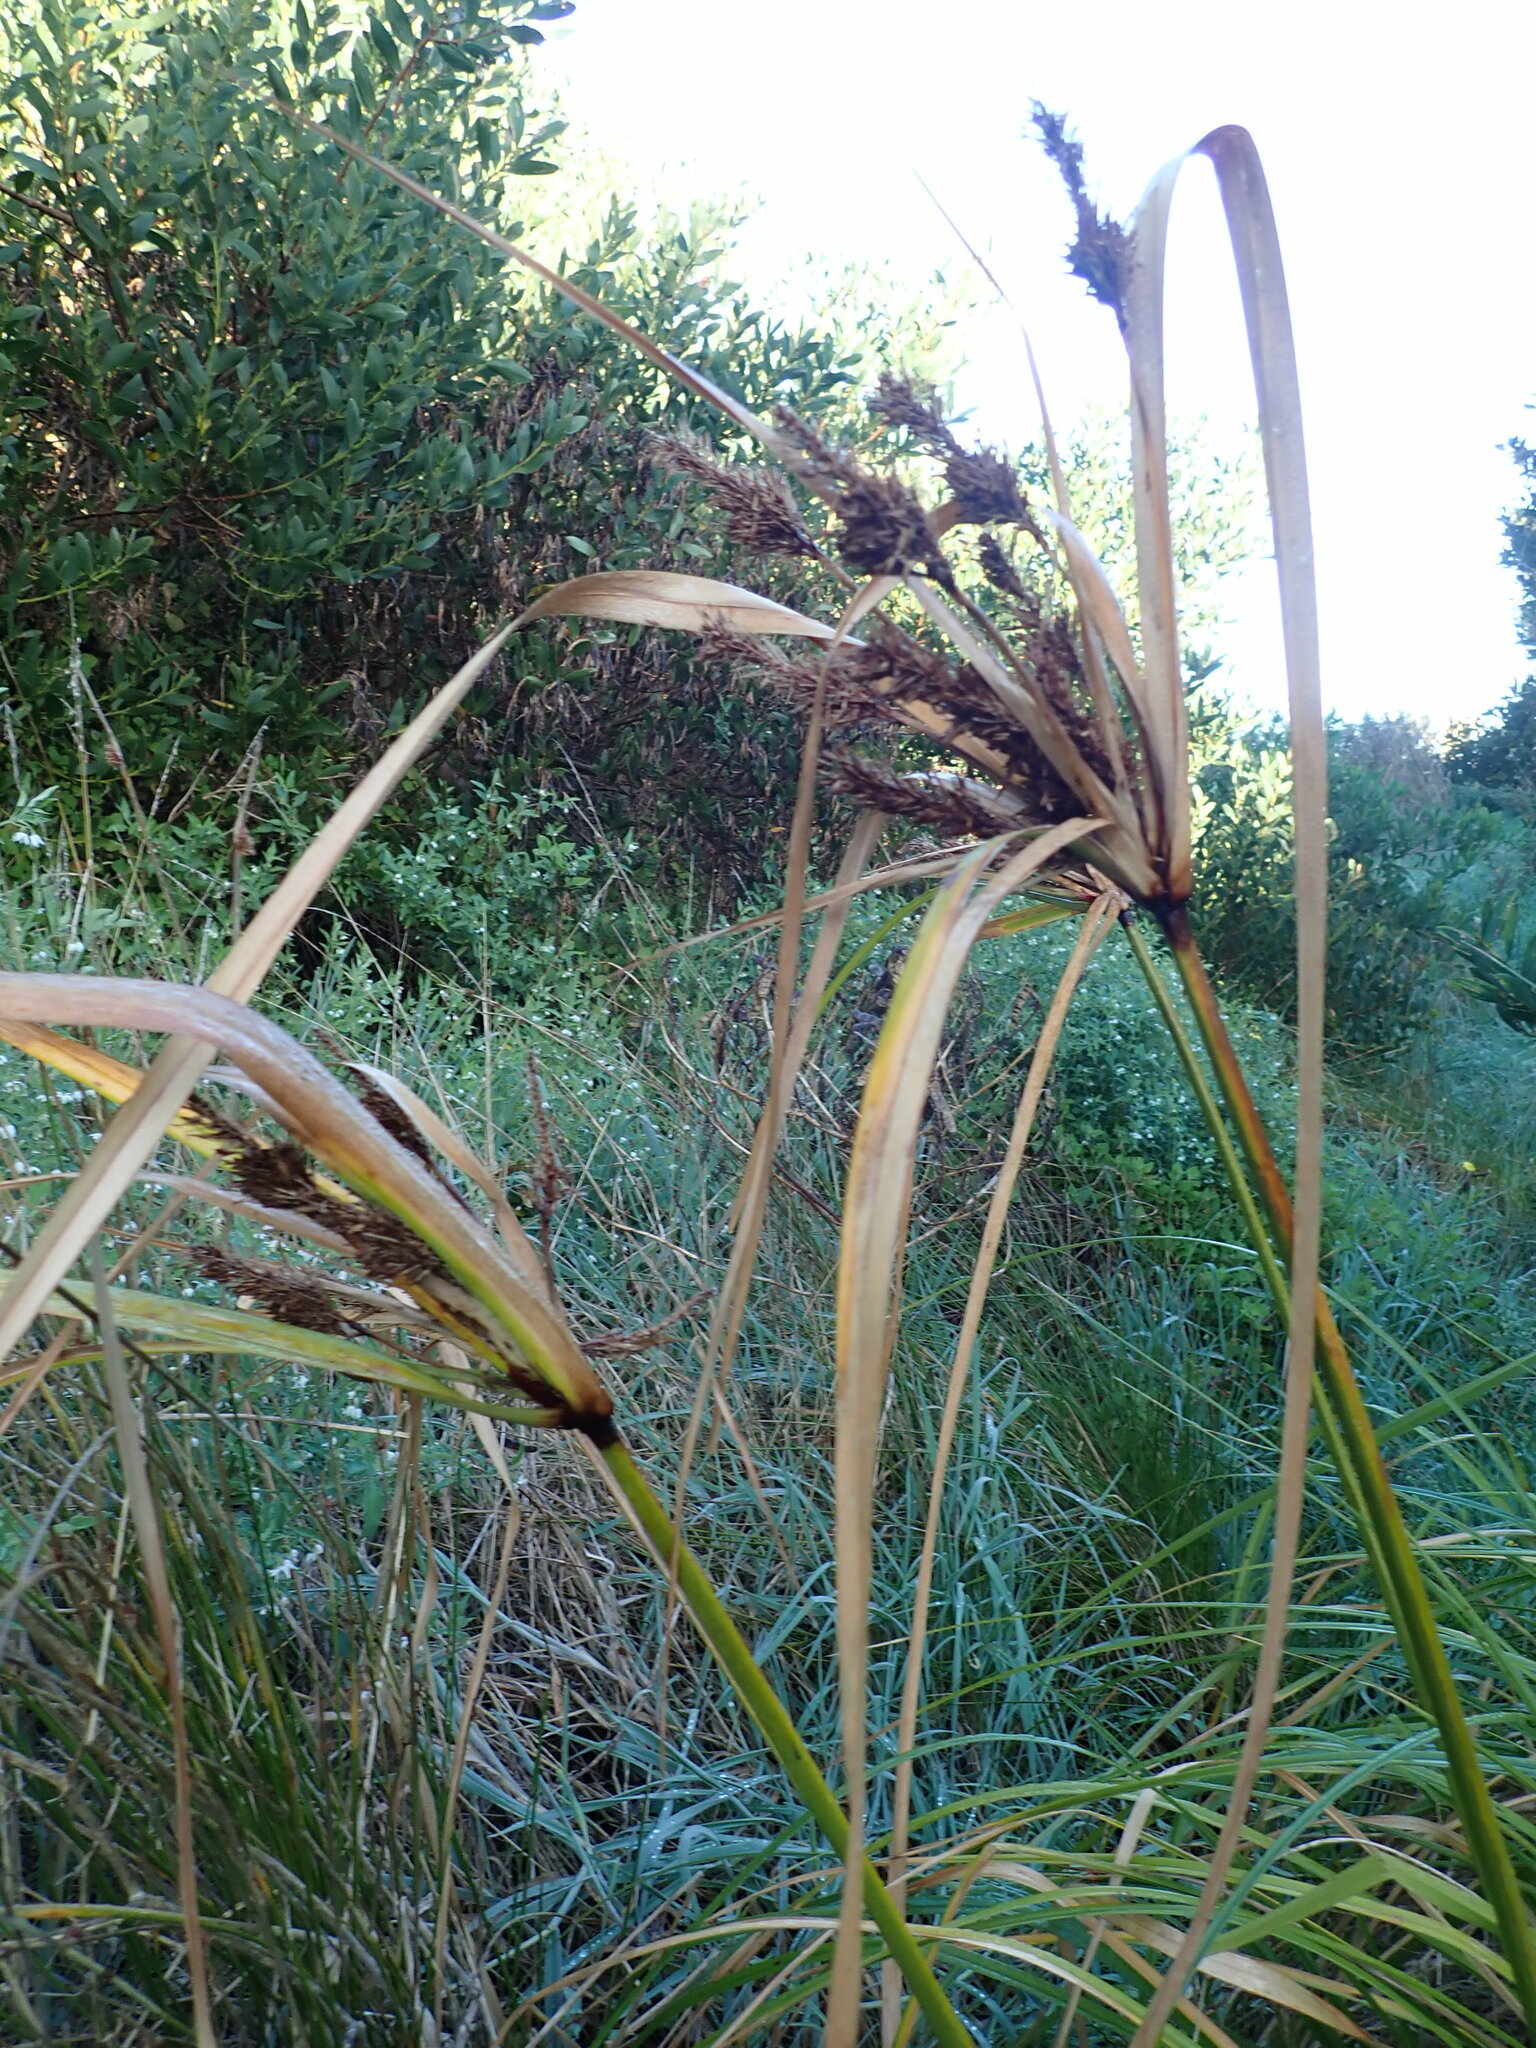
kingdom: Plantae
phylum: Tracheophyta
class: Liliopsida
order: Poales
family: Cyperaceae
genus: Cyperus
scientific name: Cyperus ustulatus
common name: Giant umbrella-sedge
